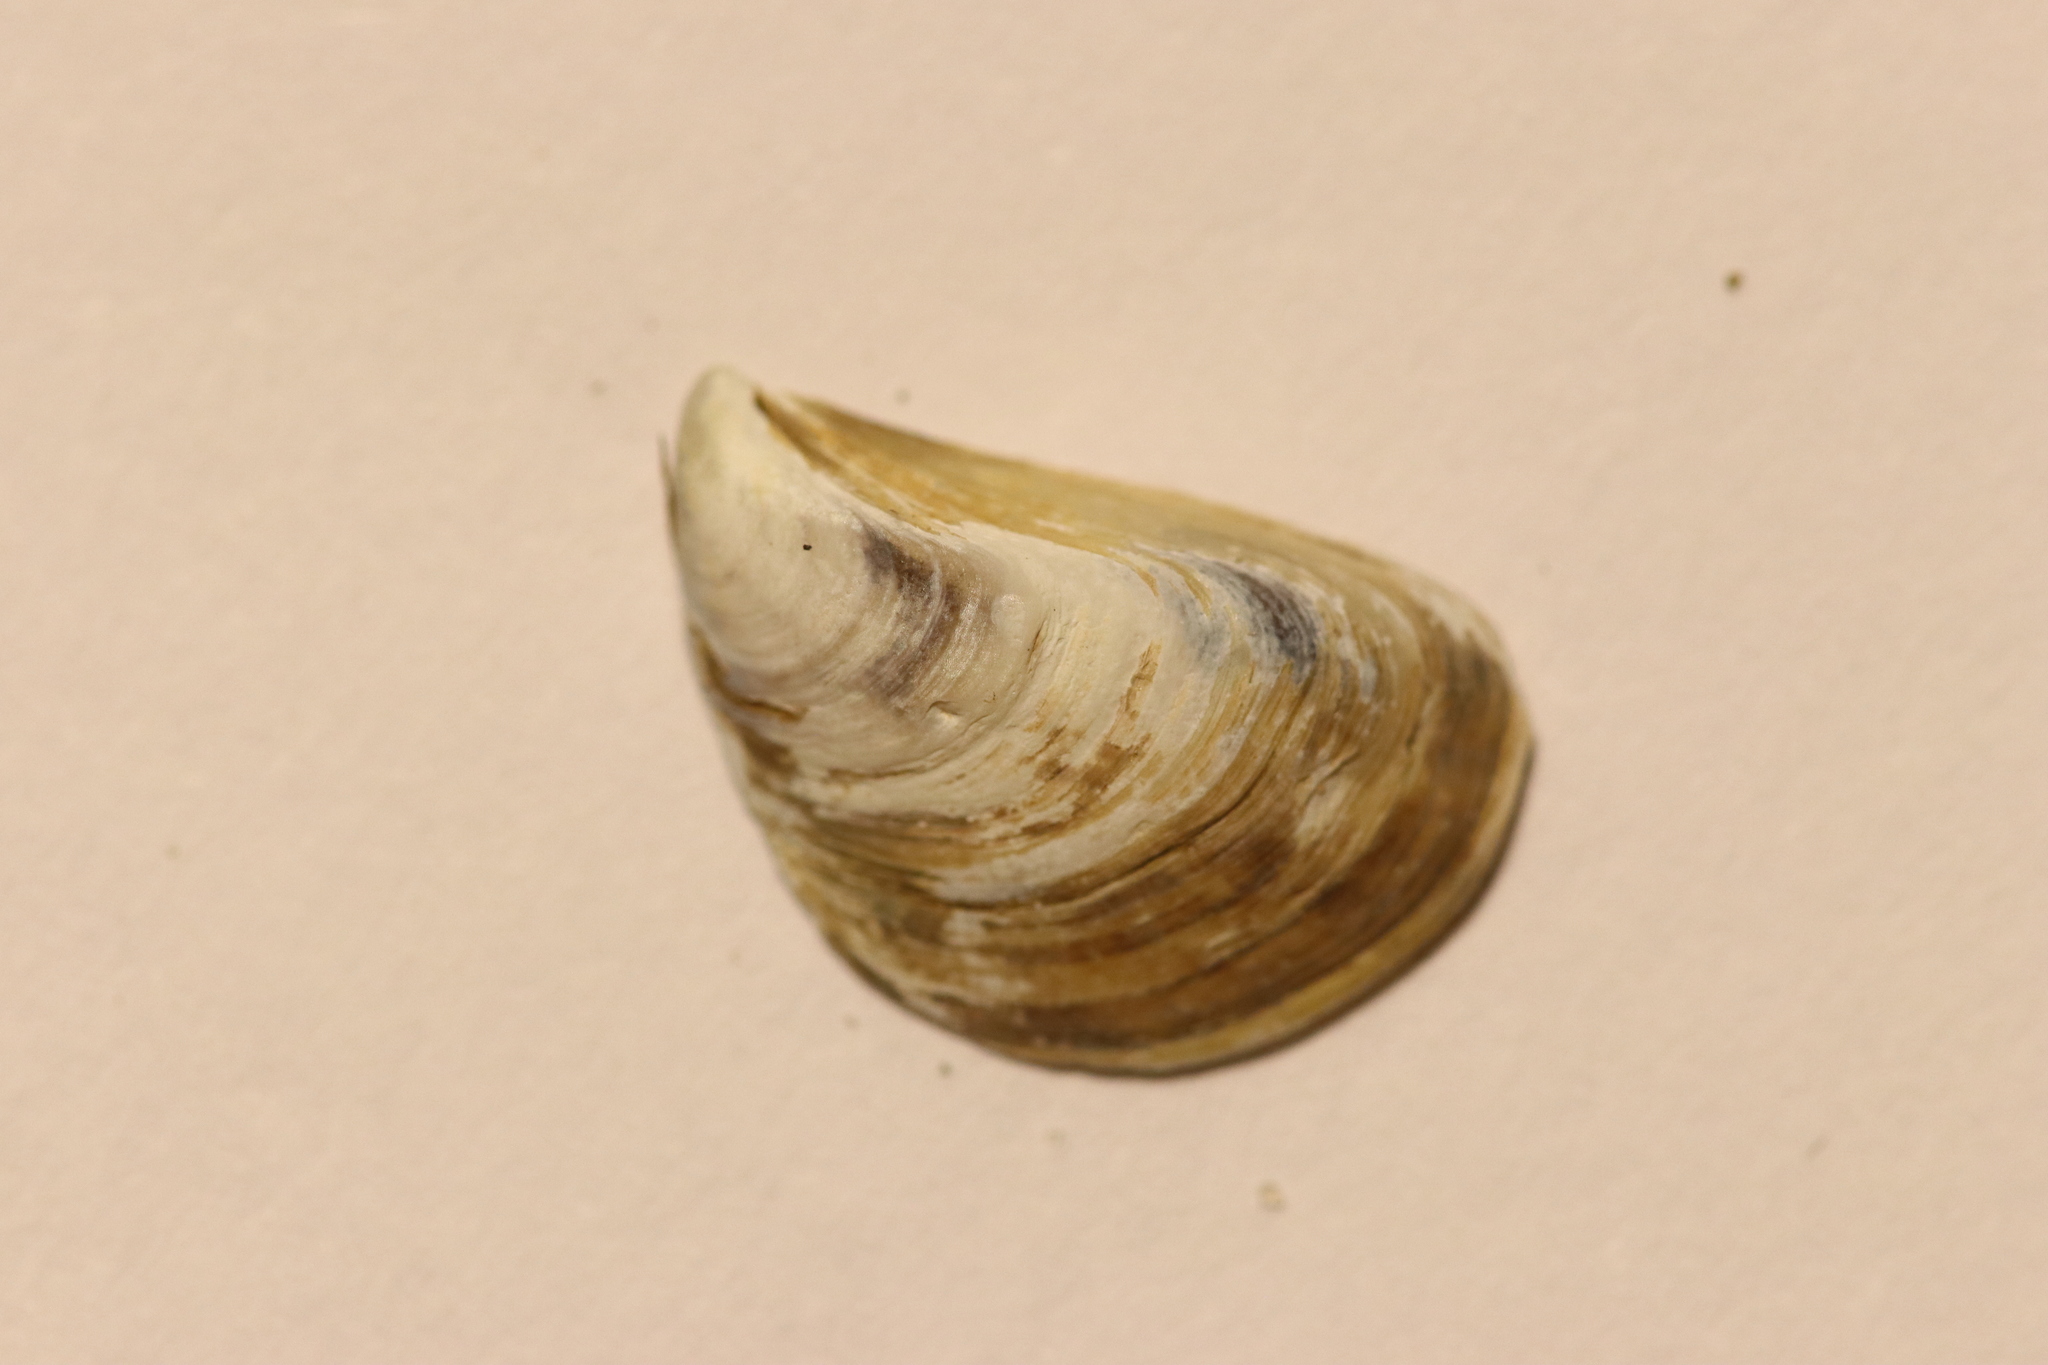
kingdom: Animalia
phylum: Mollusca
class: Bivalvia
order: Myida
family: Dreissenidae
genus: Dreissena
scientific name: Dreissena bugensis
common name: Quagga mussel
